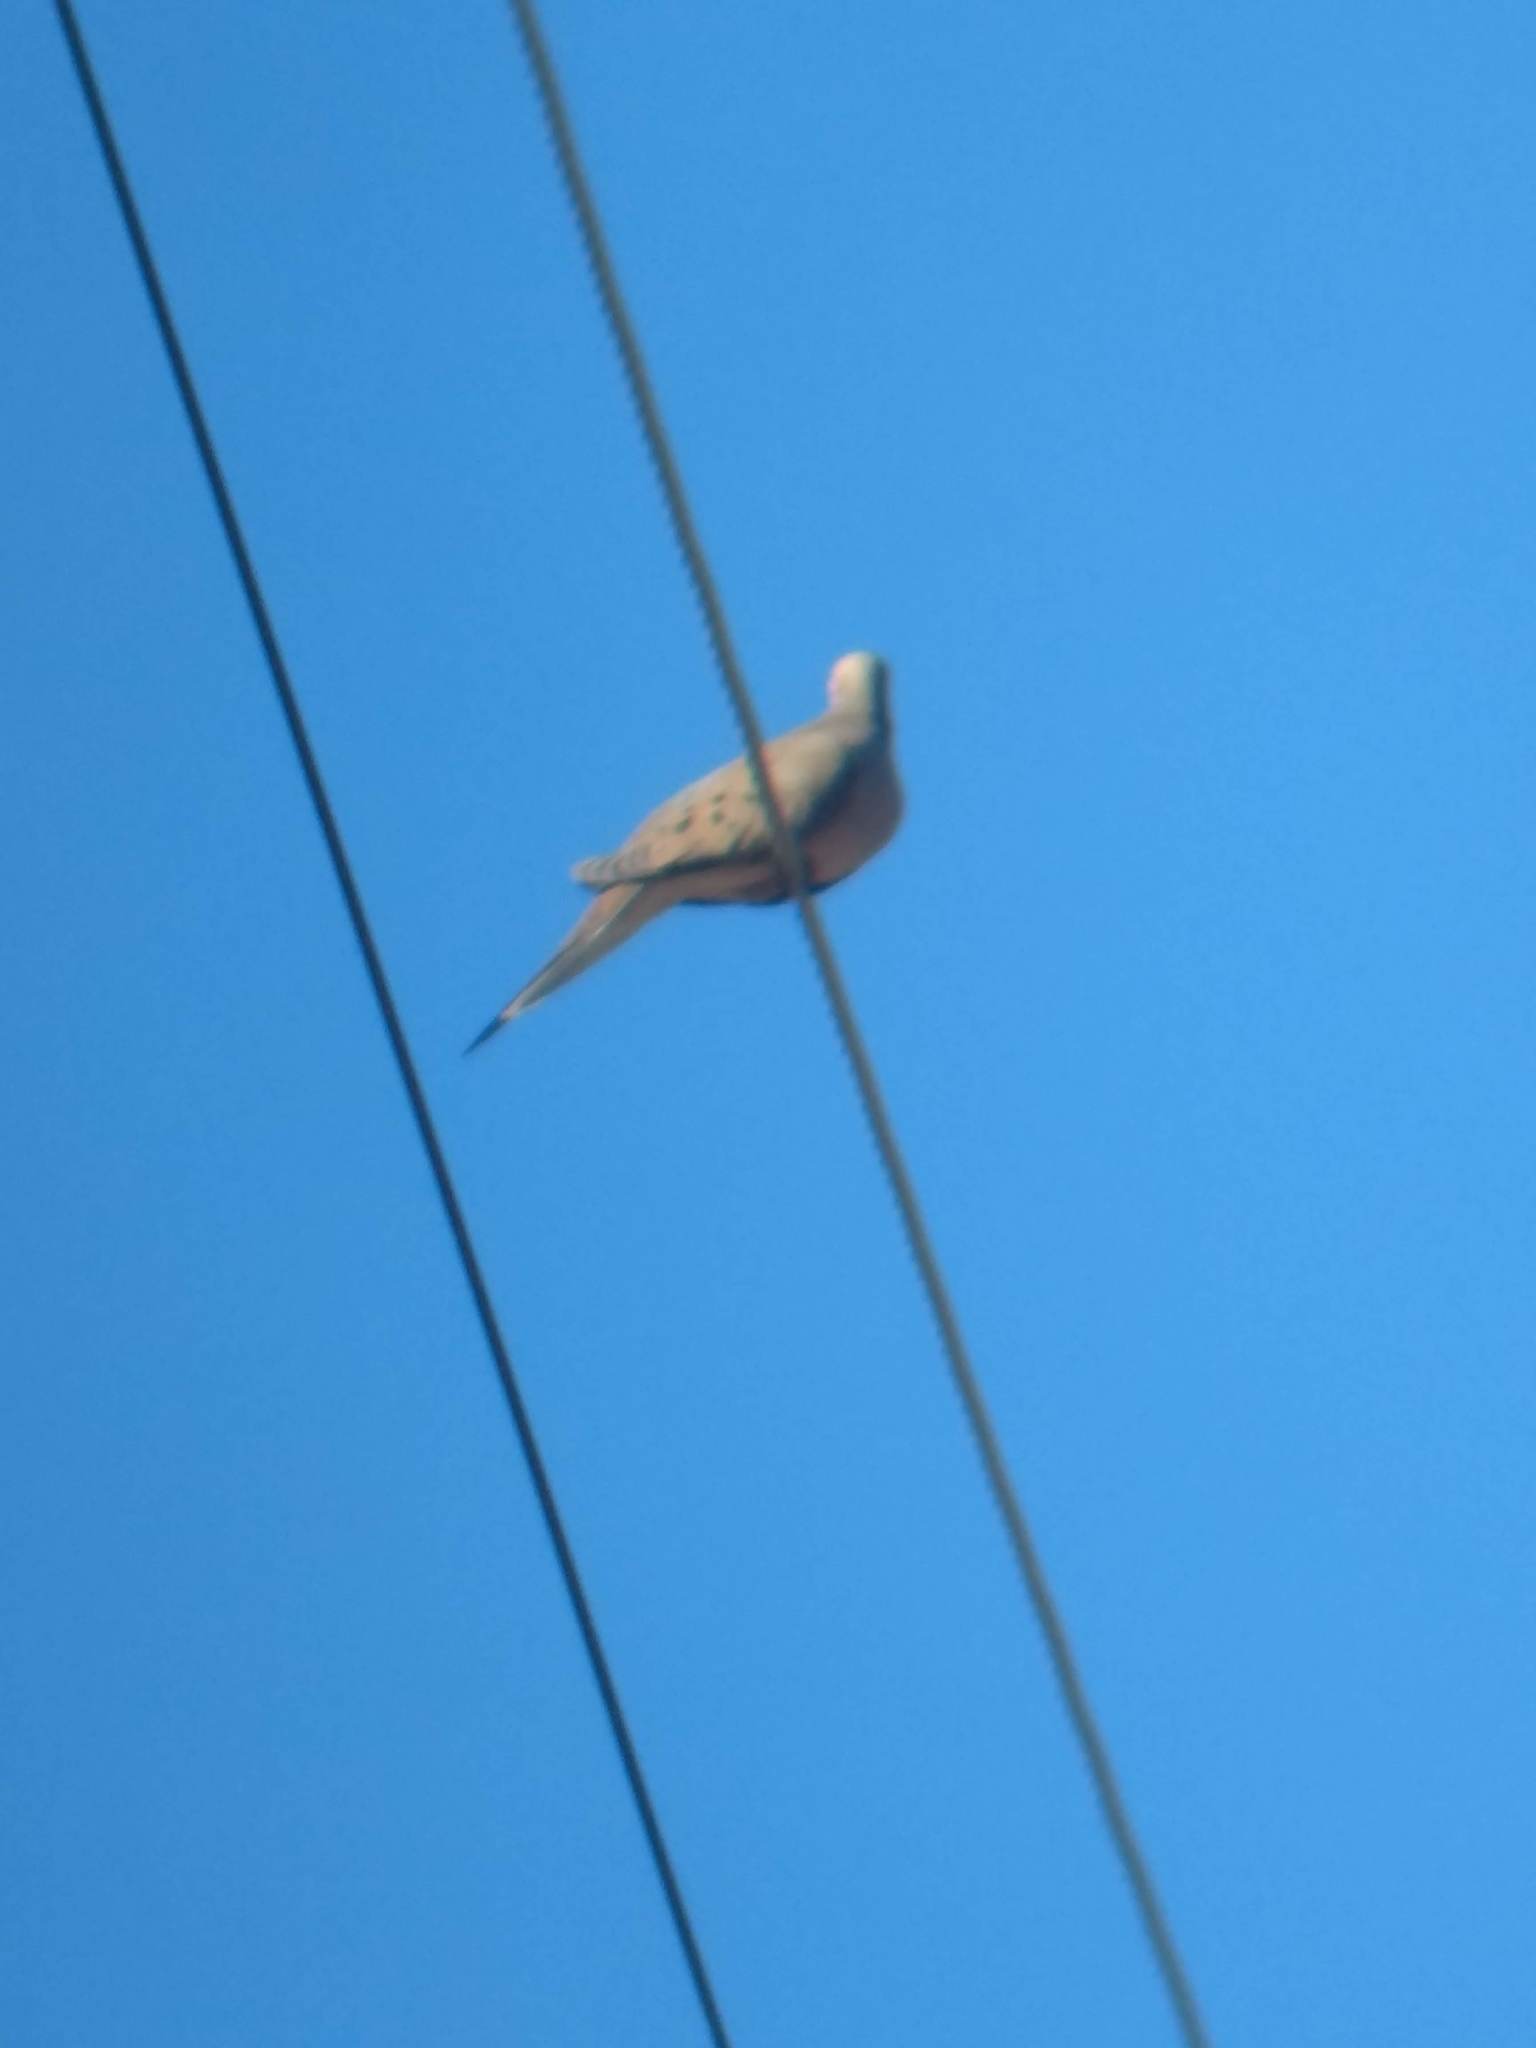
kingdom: Animalia
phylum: Chordata
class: Aves
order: Columbiformes
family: Columbidae
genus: Zenaida
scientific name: Zenaida macroura
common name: Mourning dove
